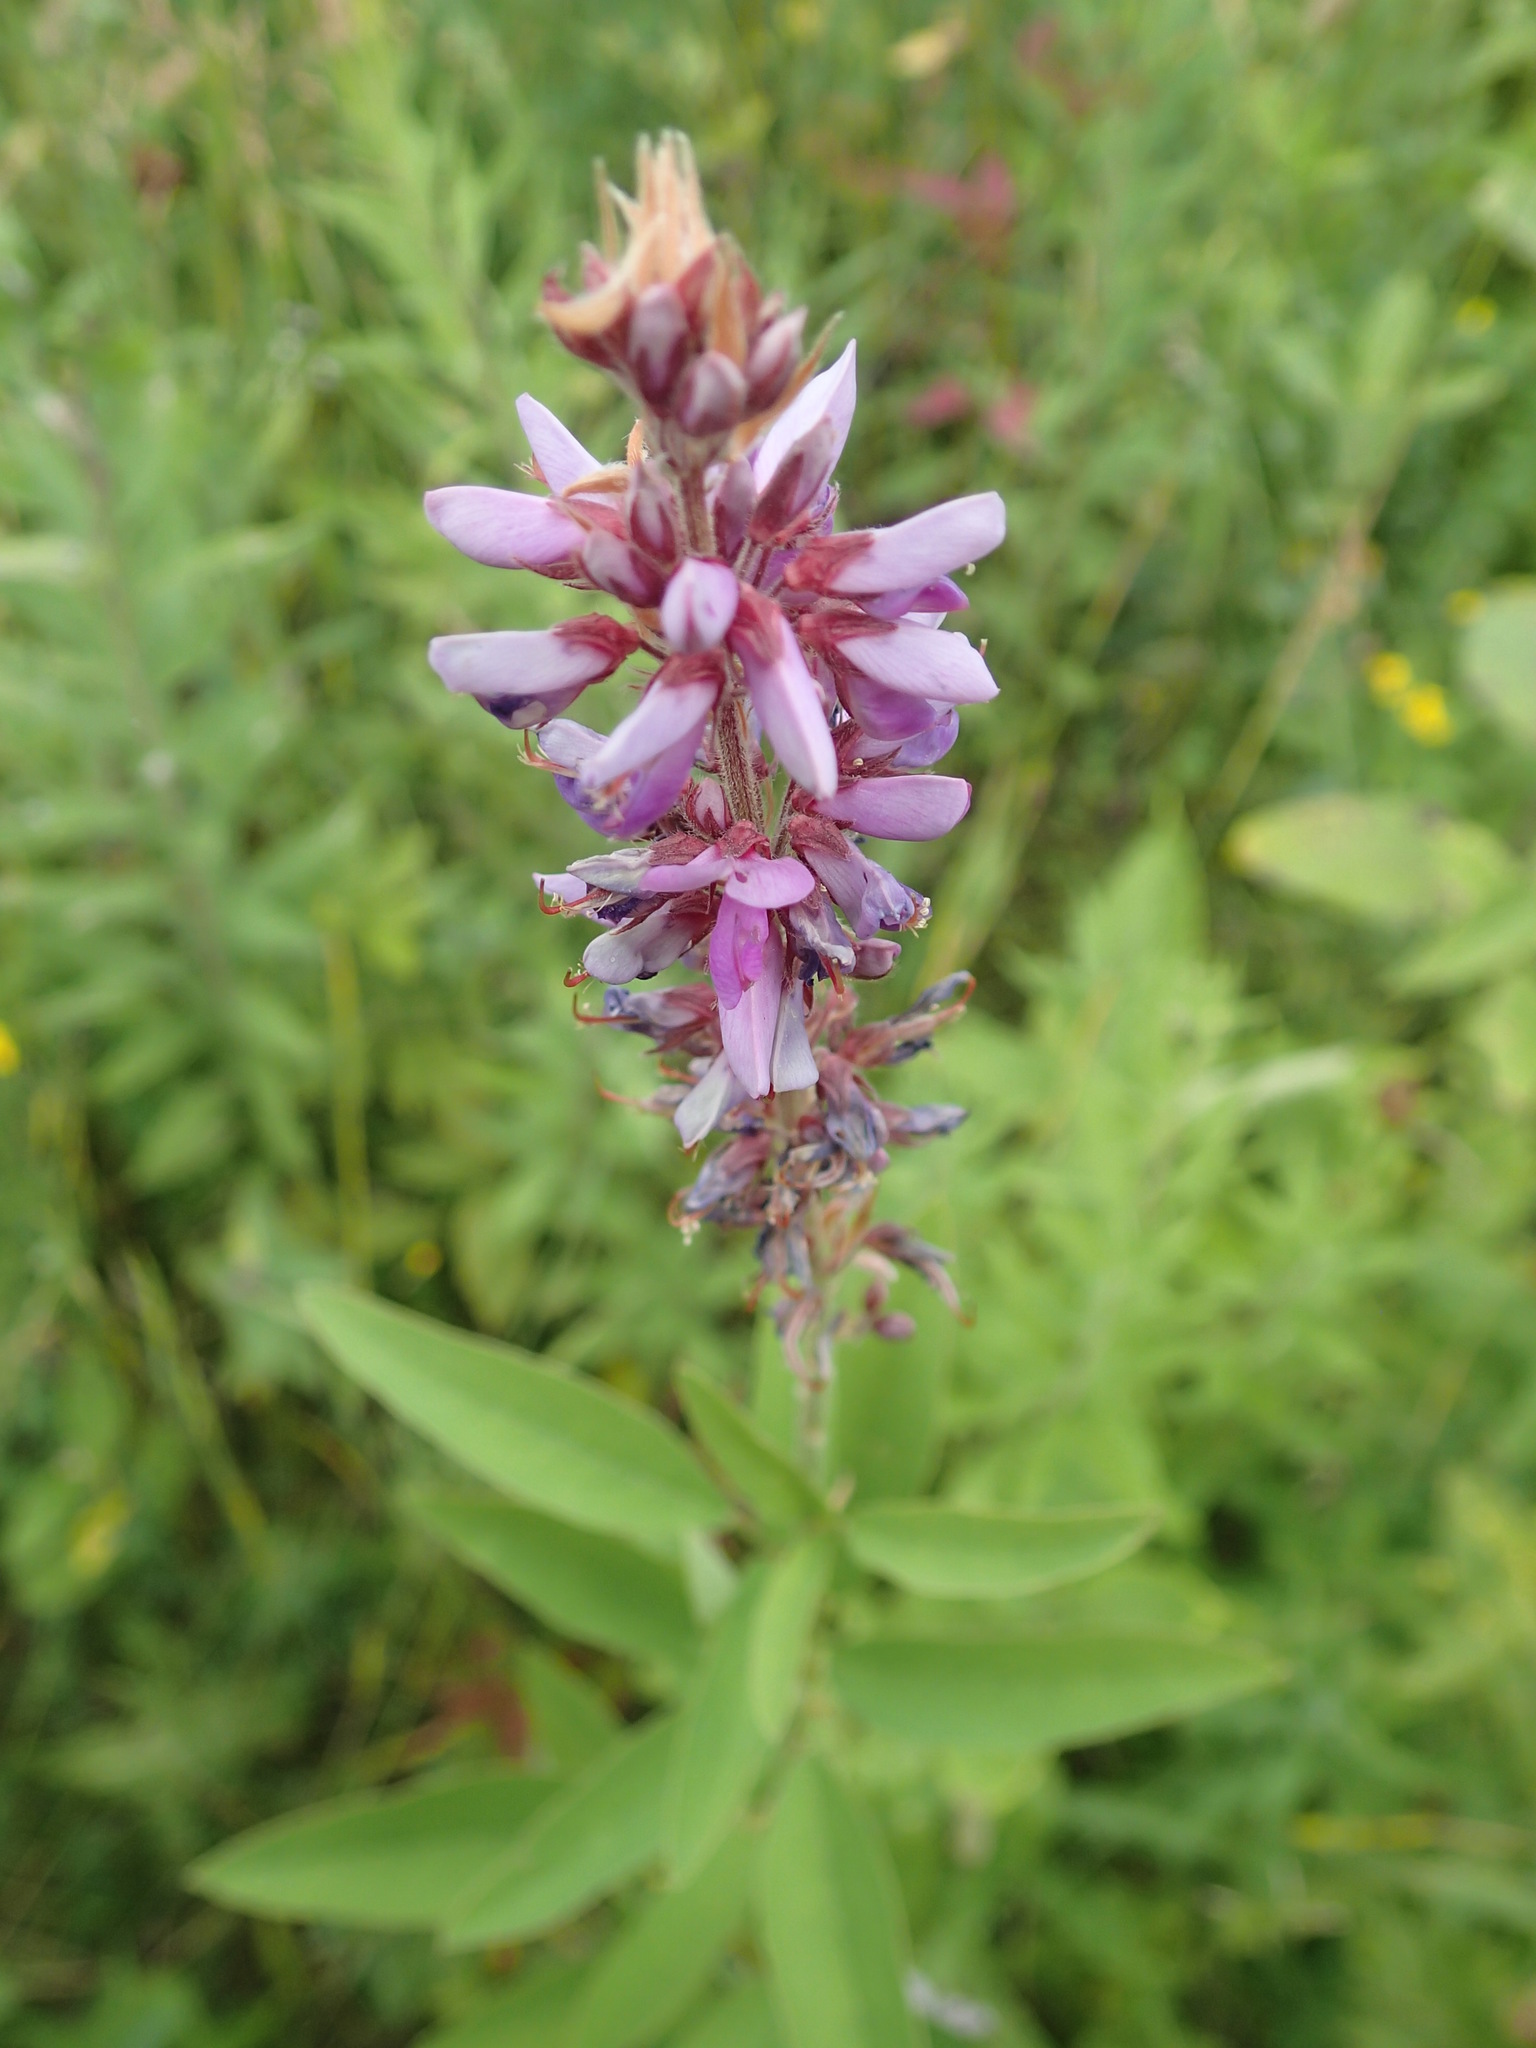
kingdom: Plantae
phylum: Tracheophyta
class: Magnoliopsida
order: Fabales
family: Fabaceae
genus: Desmodium
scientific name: Desmodium canadense
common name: Canada tick-trefoil
